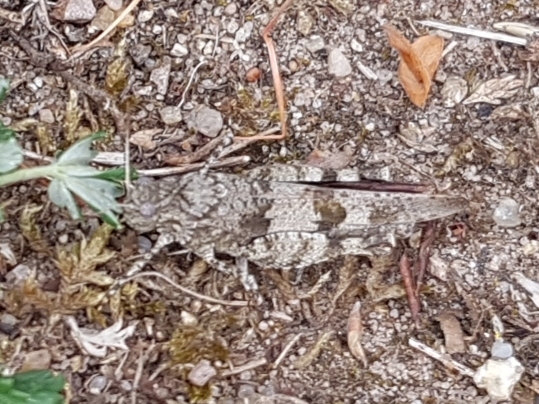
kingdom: Animalia
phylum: Arthropoda
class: Insecta
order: Orthoptera
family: Acrididae
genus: Oedipoda
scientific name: Oedipoda caerulescens
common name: Blue-winged grasshopper
